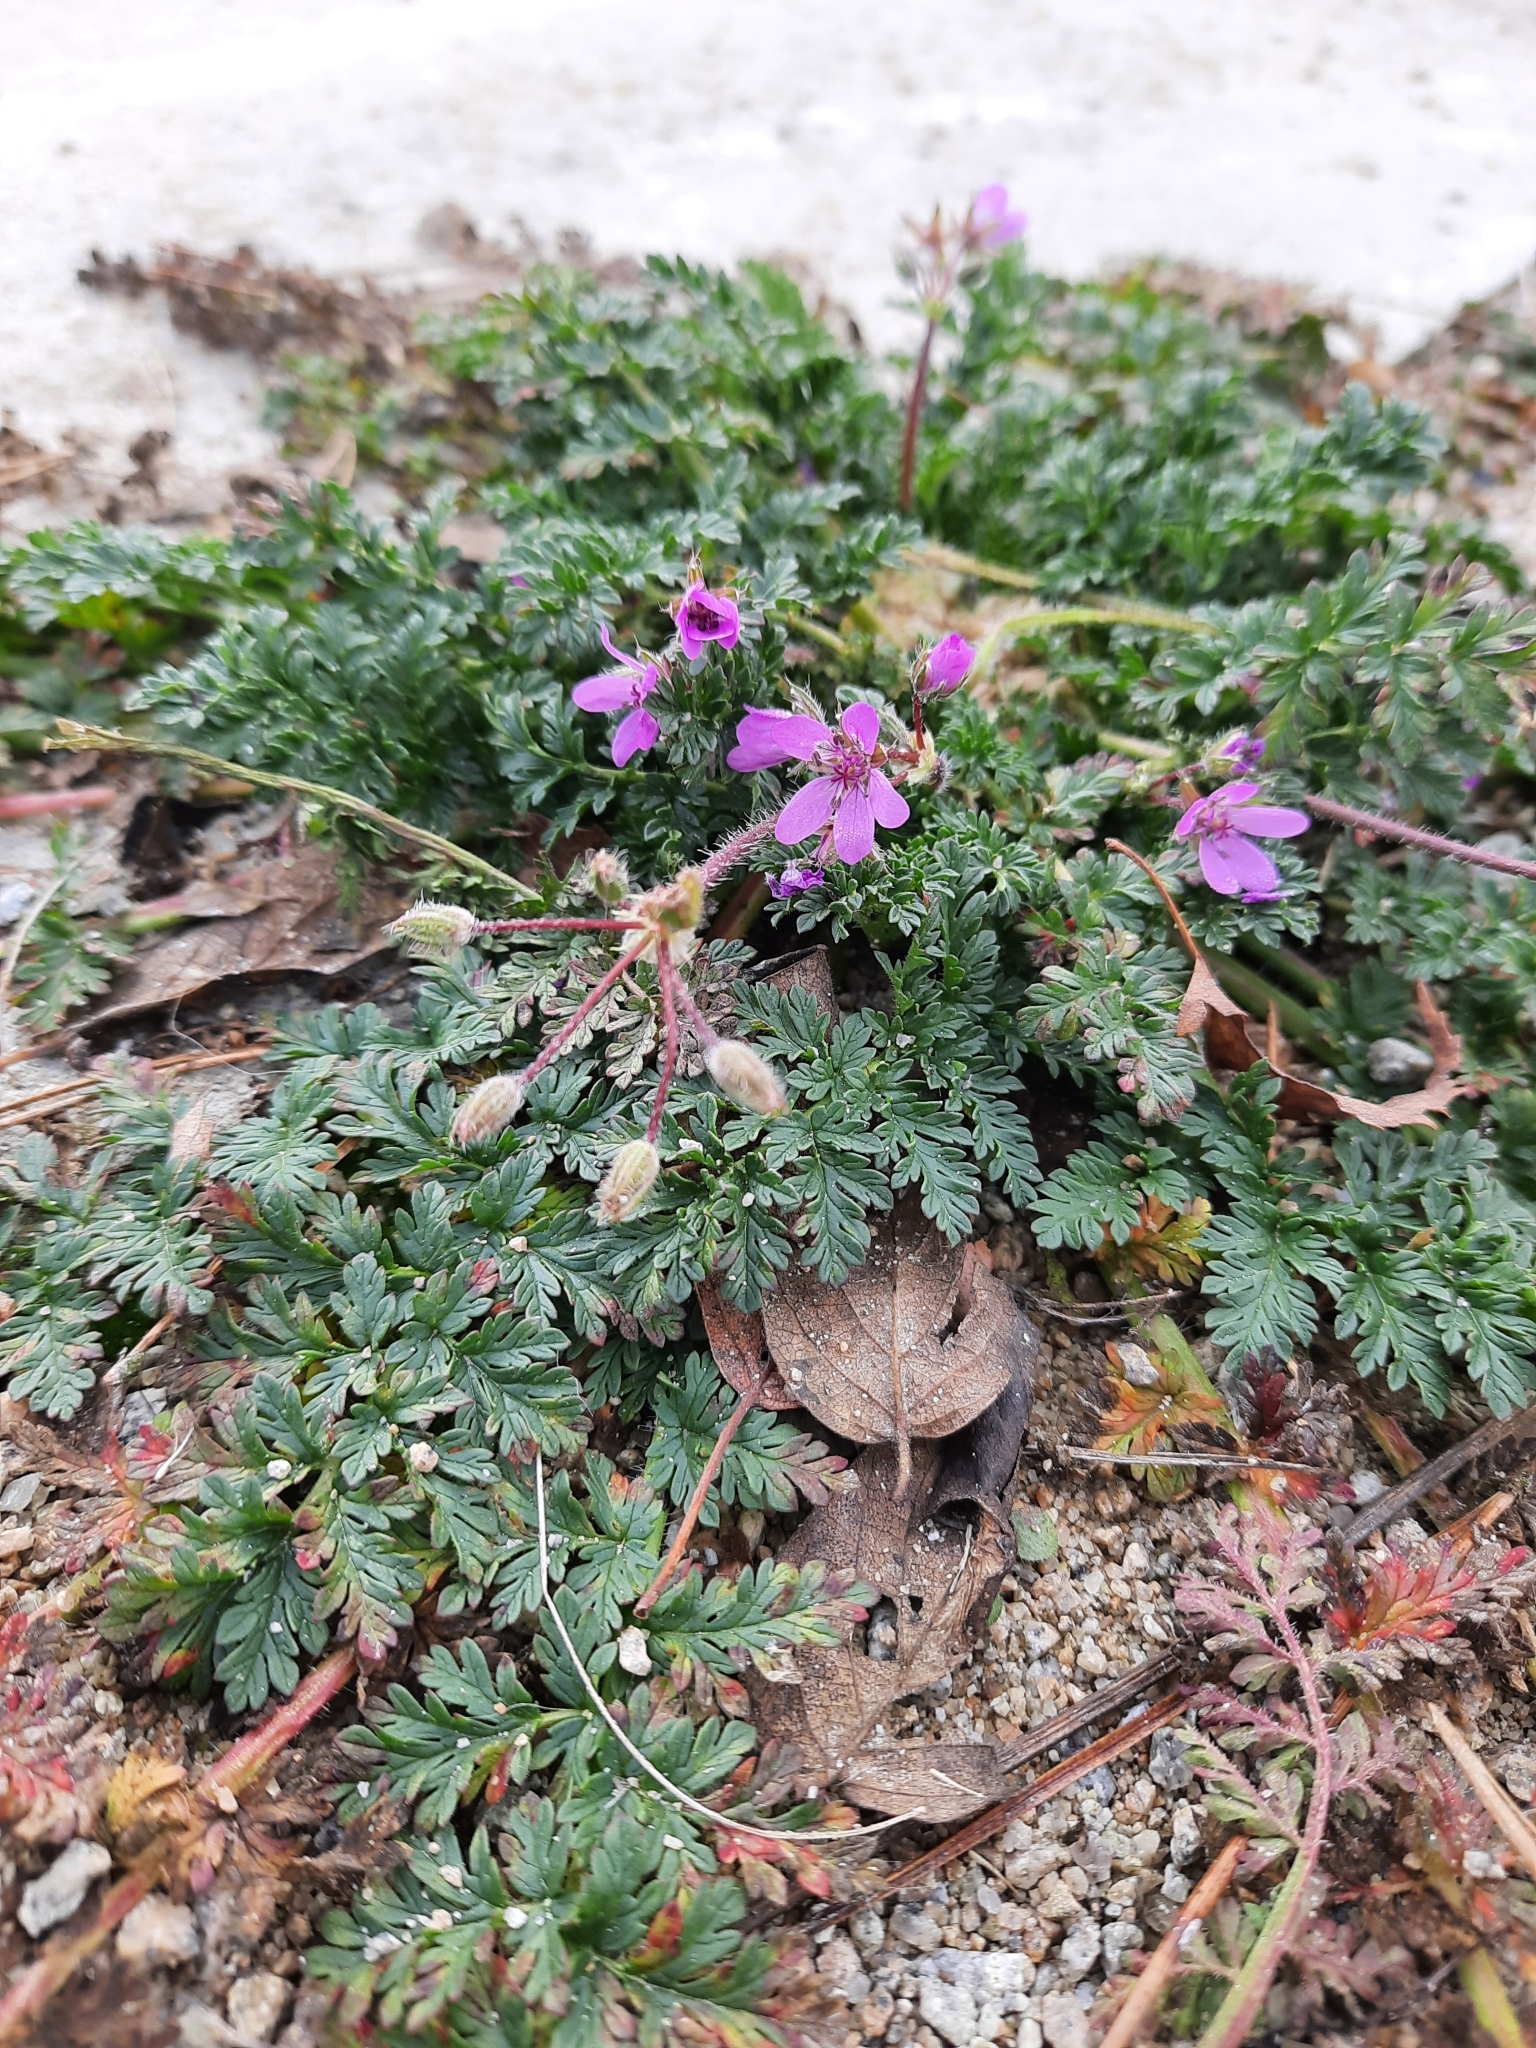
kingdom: Plantae
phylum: Tracheophyta
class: Magnoliopsida
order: Geraniales
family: Geraniaceae
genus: Erodium
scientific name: Erodium cicutarium
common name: Common stork's-bill
